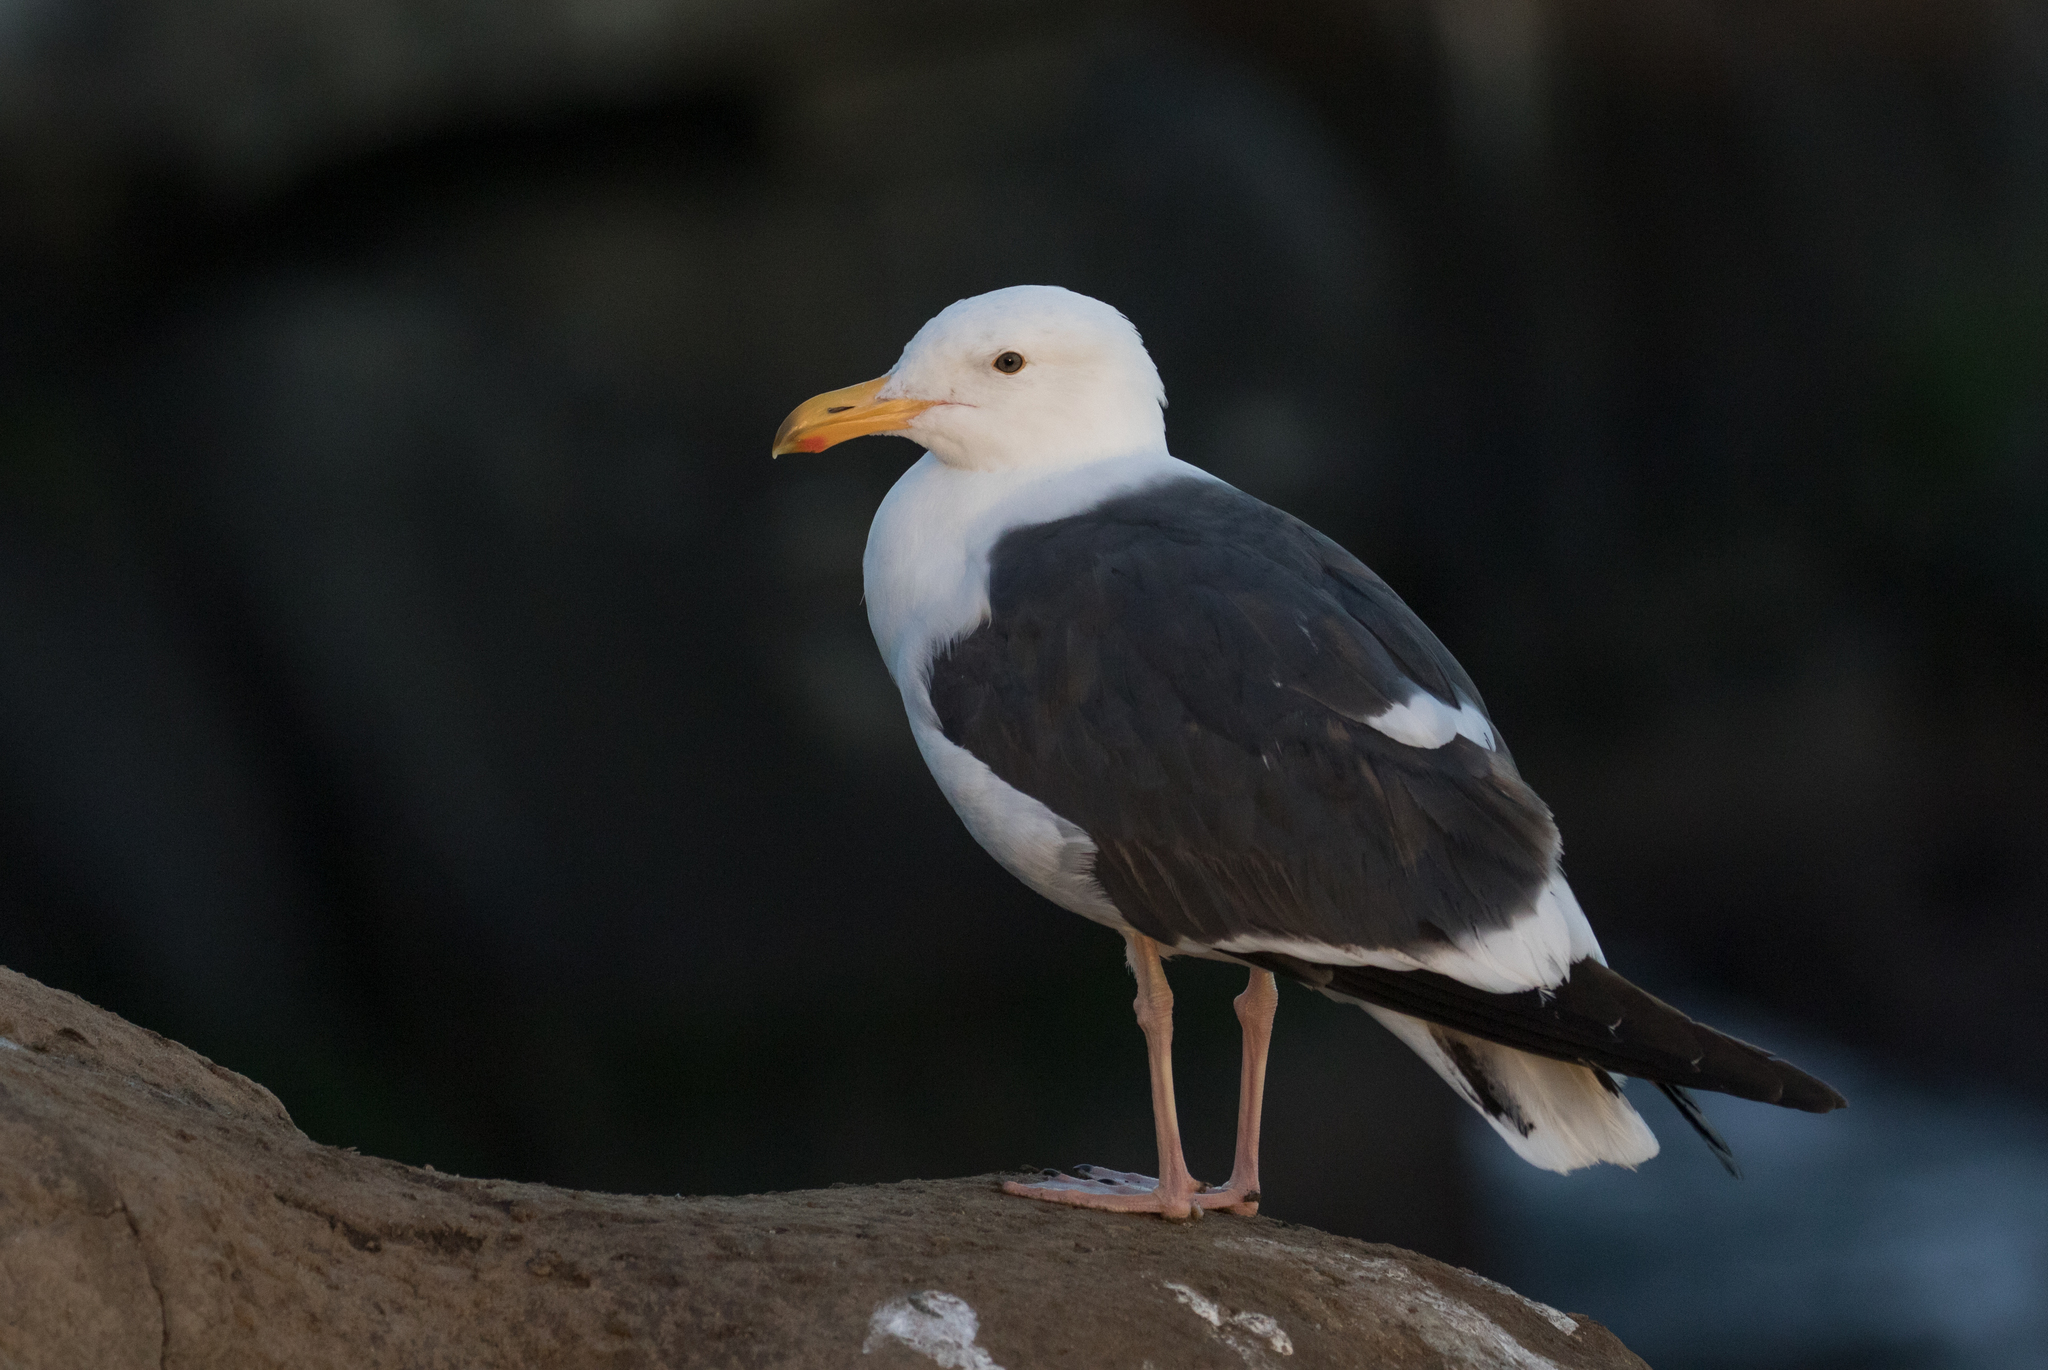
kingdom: Animalia
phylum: Chordata
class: Aves
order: Charadriiformes
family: Laridae
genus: Larus
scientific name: Larus occidentalis
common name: Western gull
